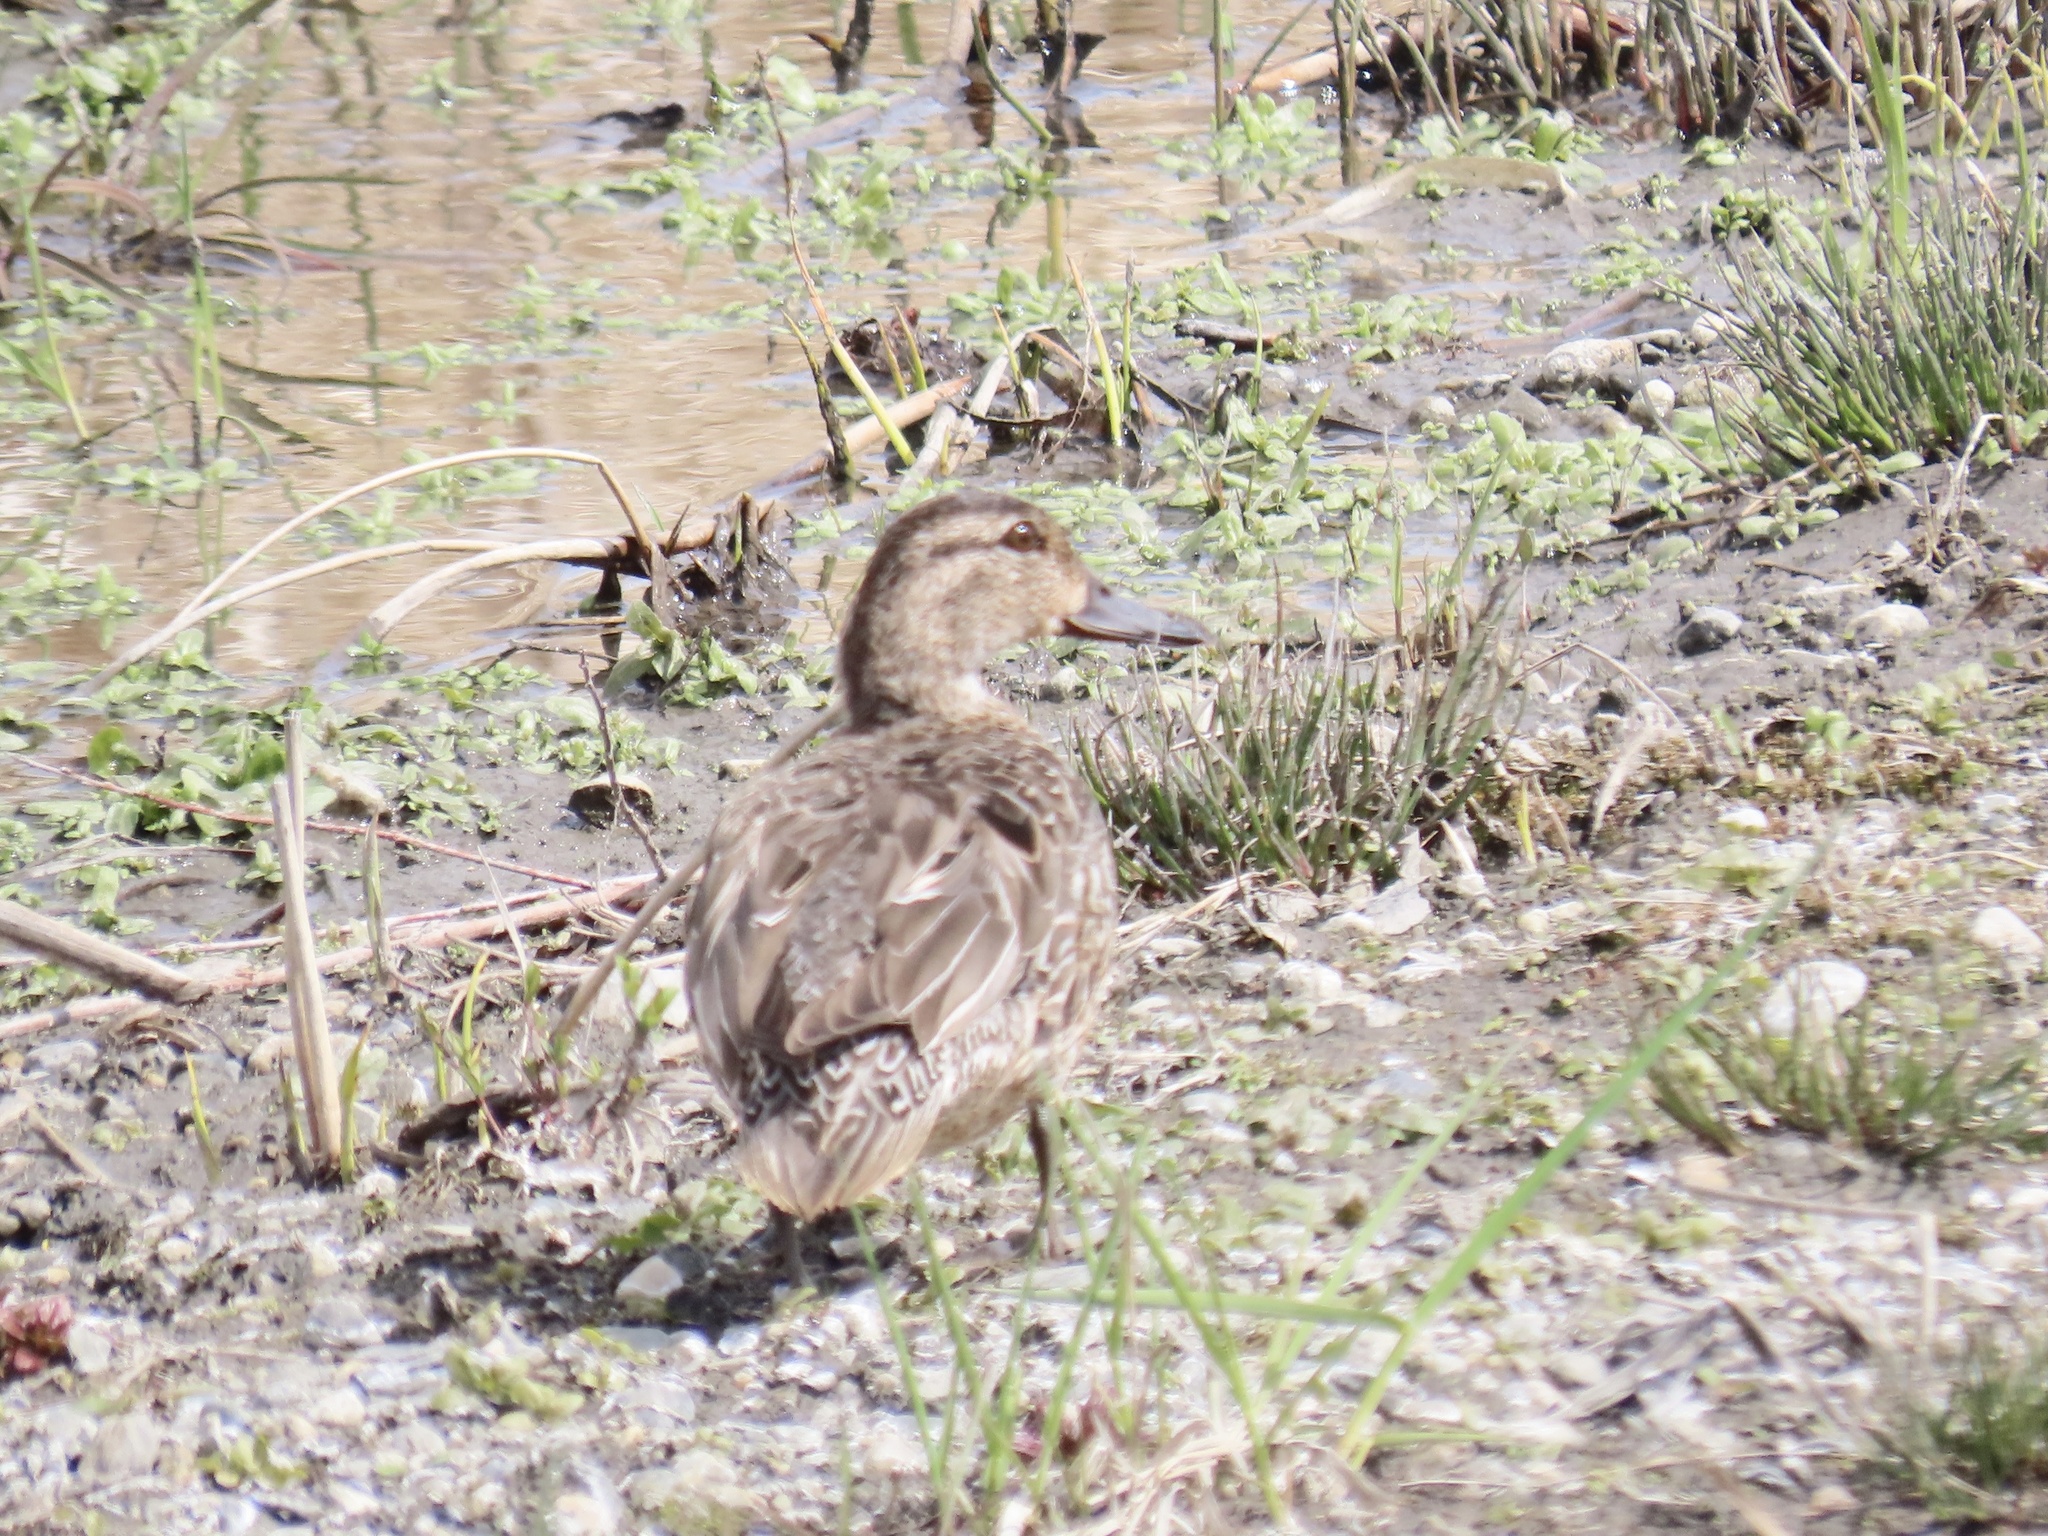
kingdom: Animalia
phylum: Chordata
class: Aves
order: Anseriformes
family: Anatidae
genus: Anas
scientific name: Anas crecca
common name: Eurasian teal
